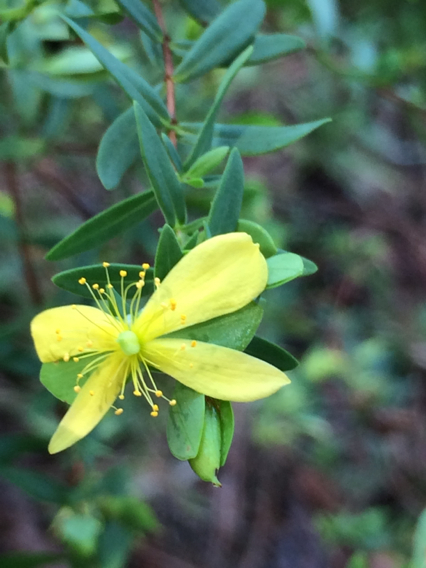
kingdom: Plantae
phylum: Tracheophyta
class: Magnoliopsida
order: Malpighiales
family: Hypericaceae
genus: Hypericum
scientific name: Hypericum hypericoides
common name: St. andrew's cross
